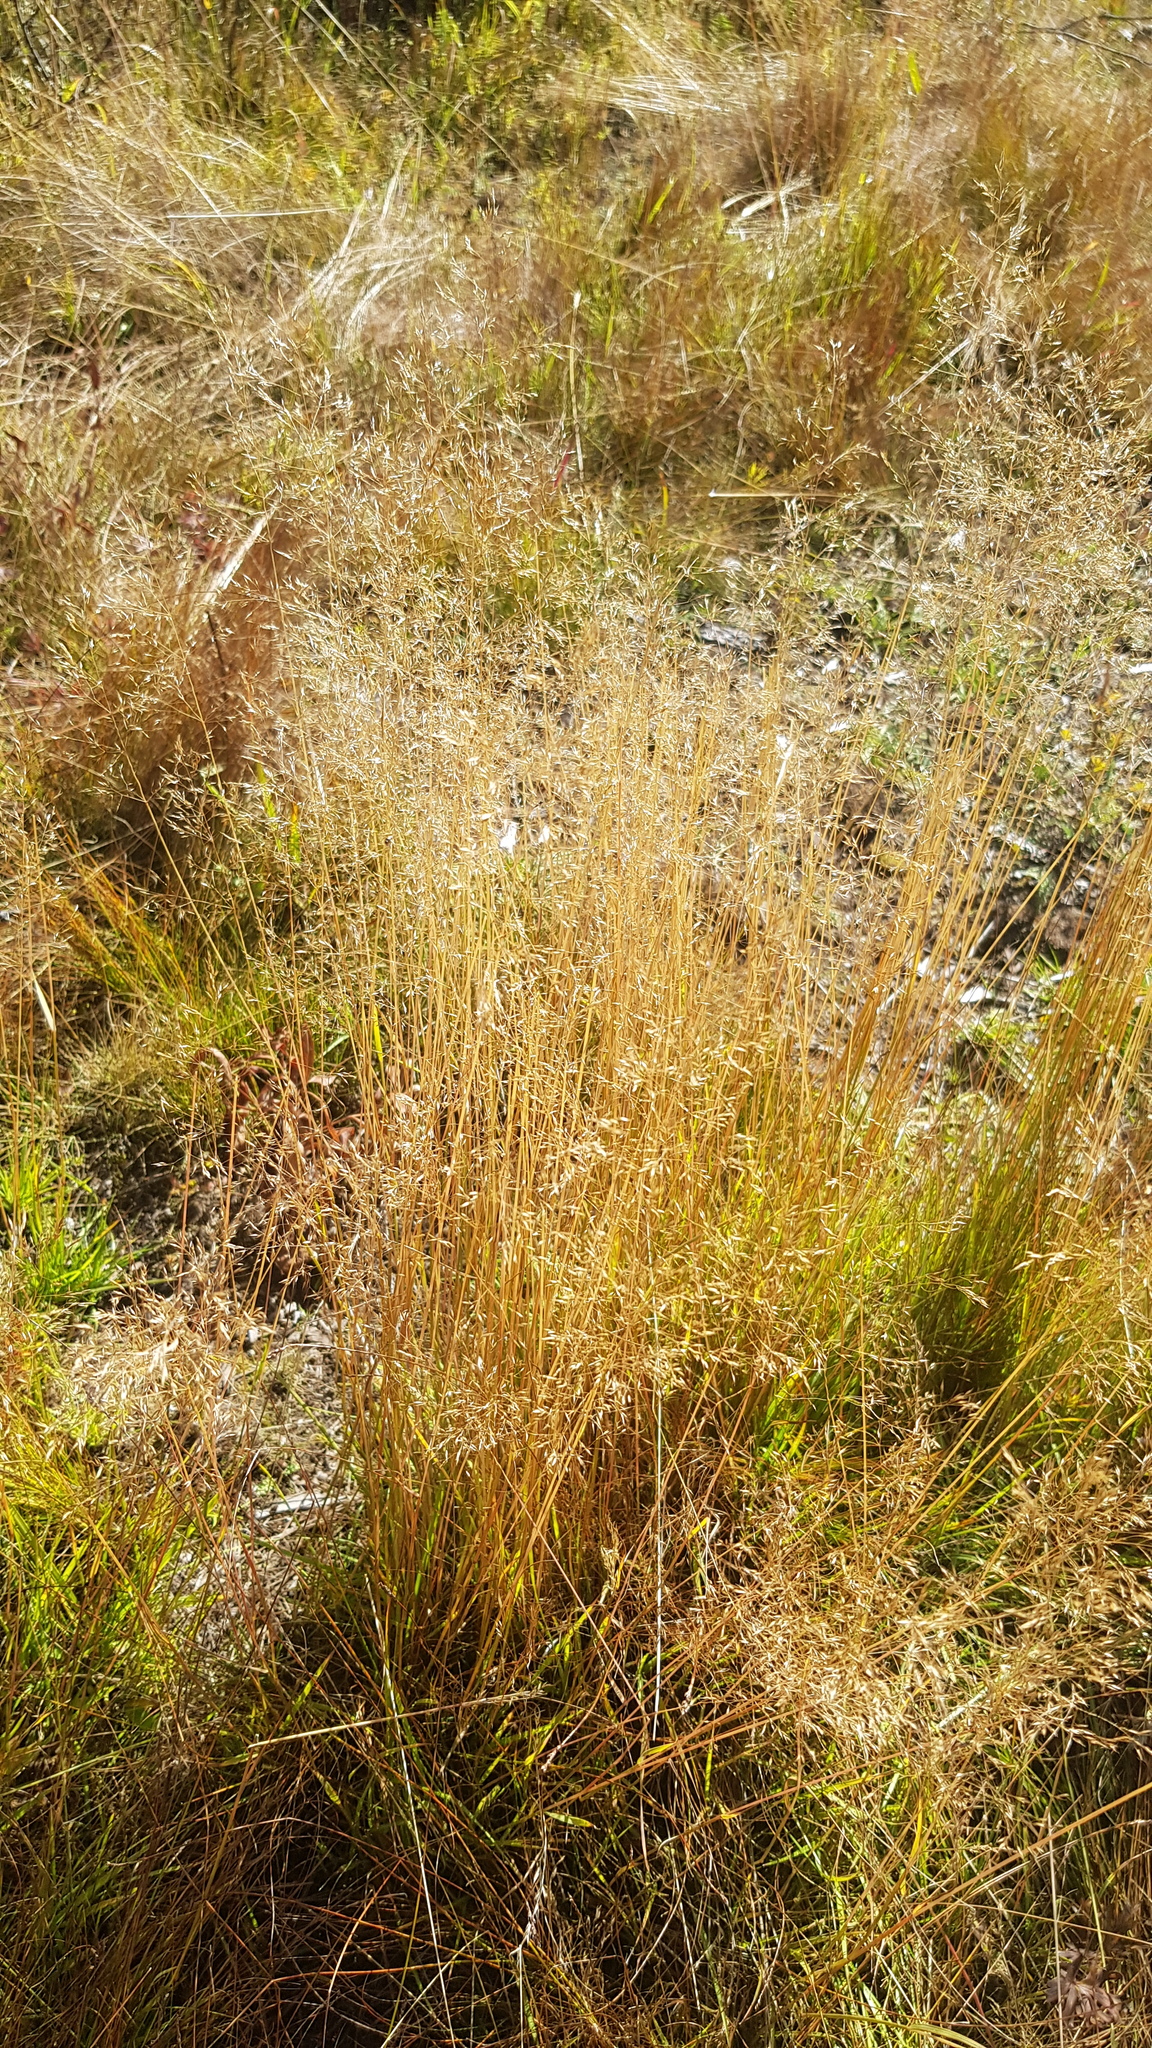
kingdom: Plantae
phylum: Tracheophyta
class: Liliopsida
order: Poales
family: Poaceae
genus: Agrostis
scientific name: Agrostis gigantea
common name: Black bent
